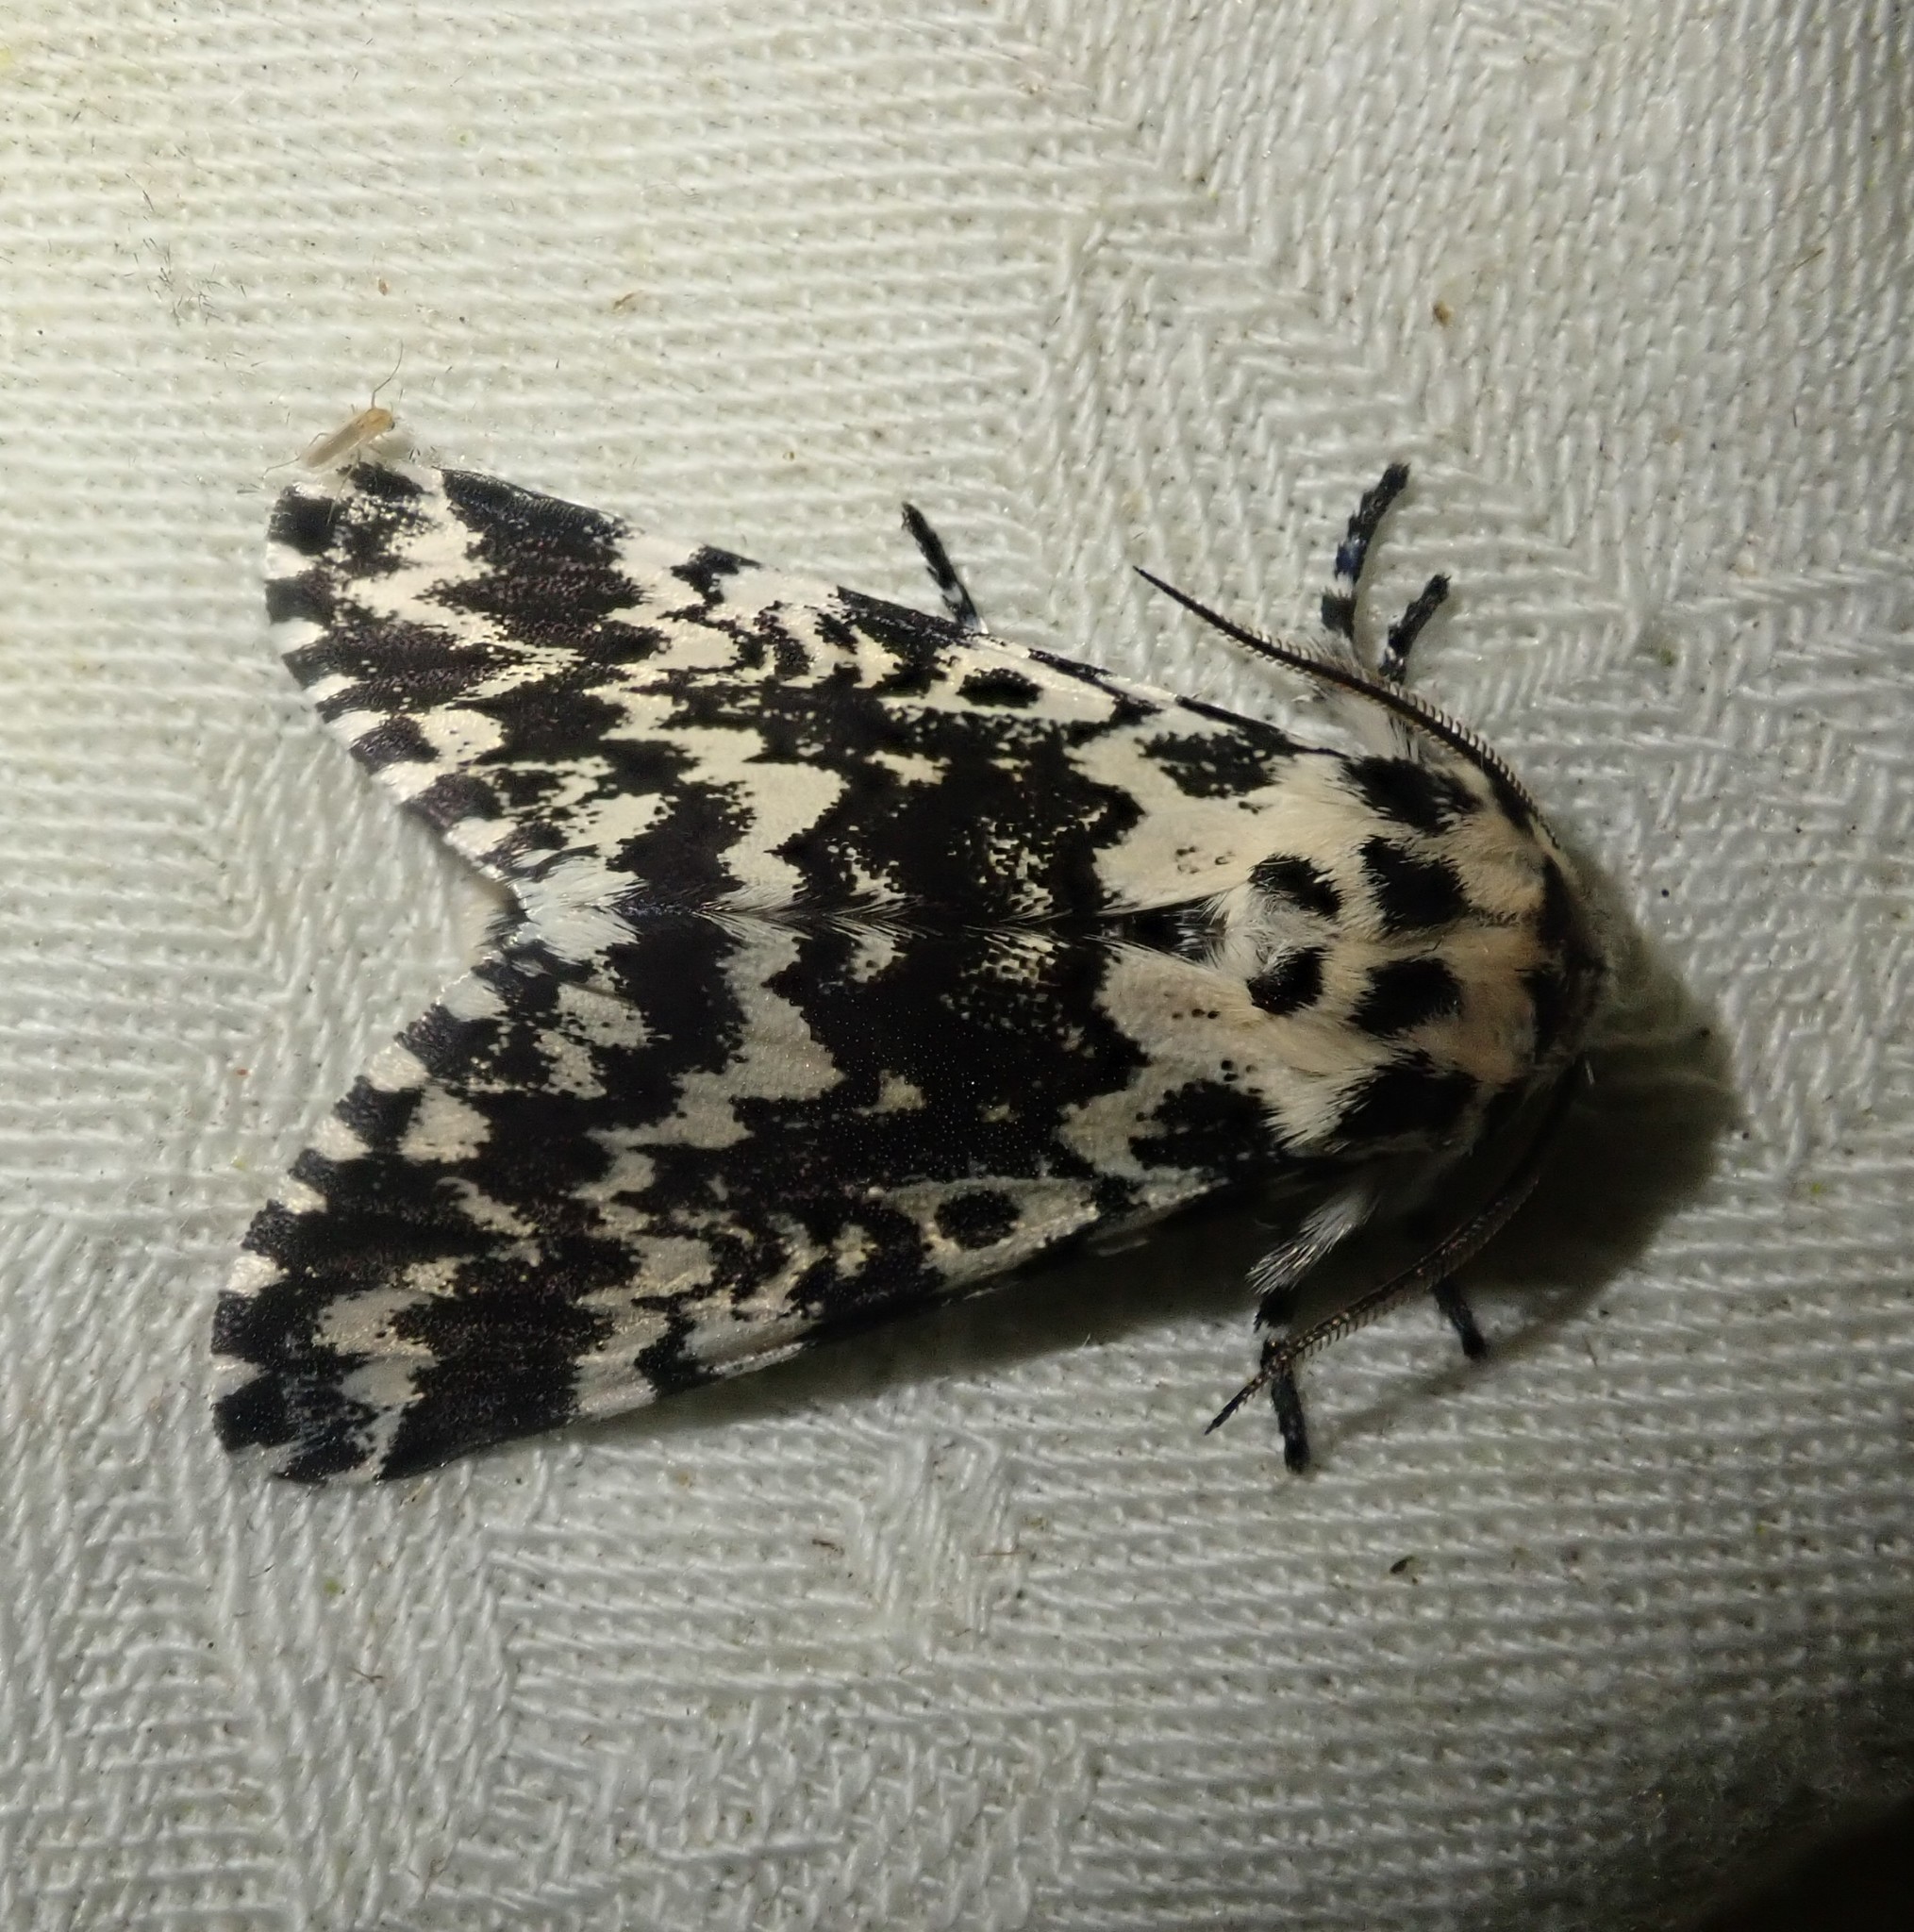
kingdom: Animalia
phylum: Arthropoda
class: Insecta
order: Lepidoptera
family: Noctuidae
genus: Panthea
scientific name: Panthea coenobita
